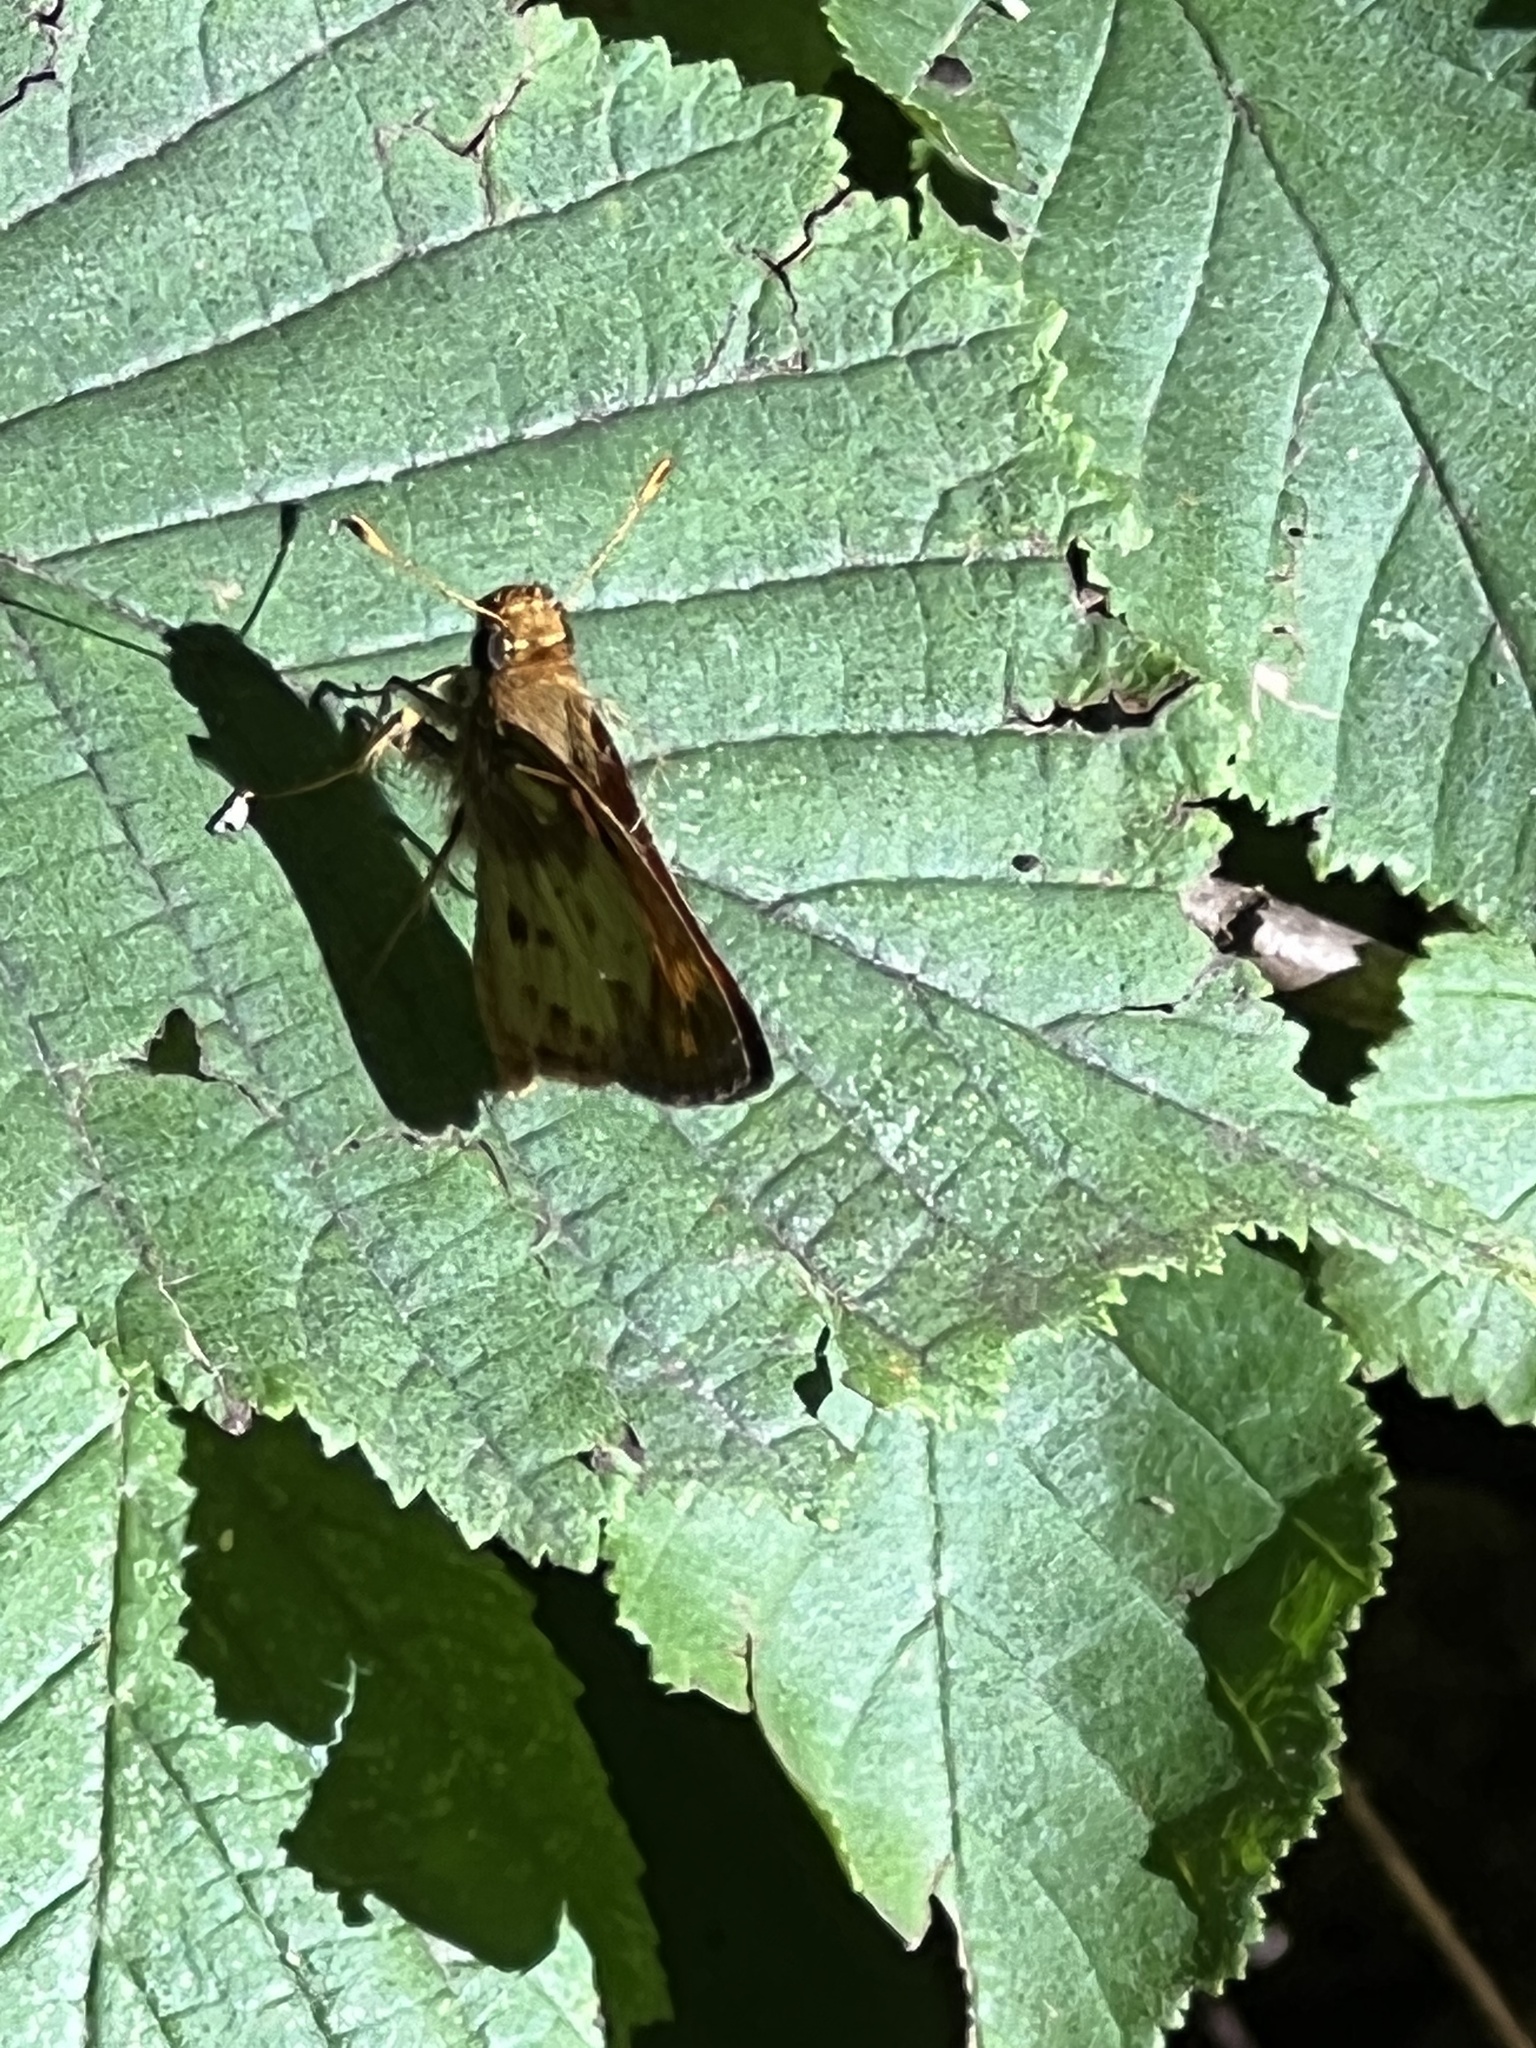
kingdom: Animalia
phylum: Arthropoda
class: Insecta
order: Lepidoptera
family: Hesperiidae
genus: Lon
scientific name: Lon zabulon
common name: Zabulon skipper
